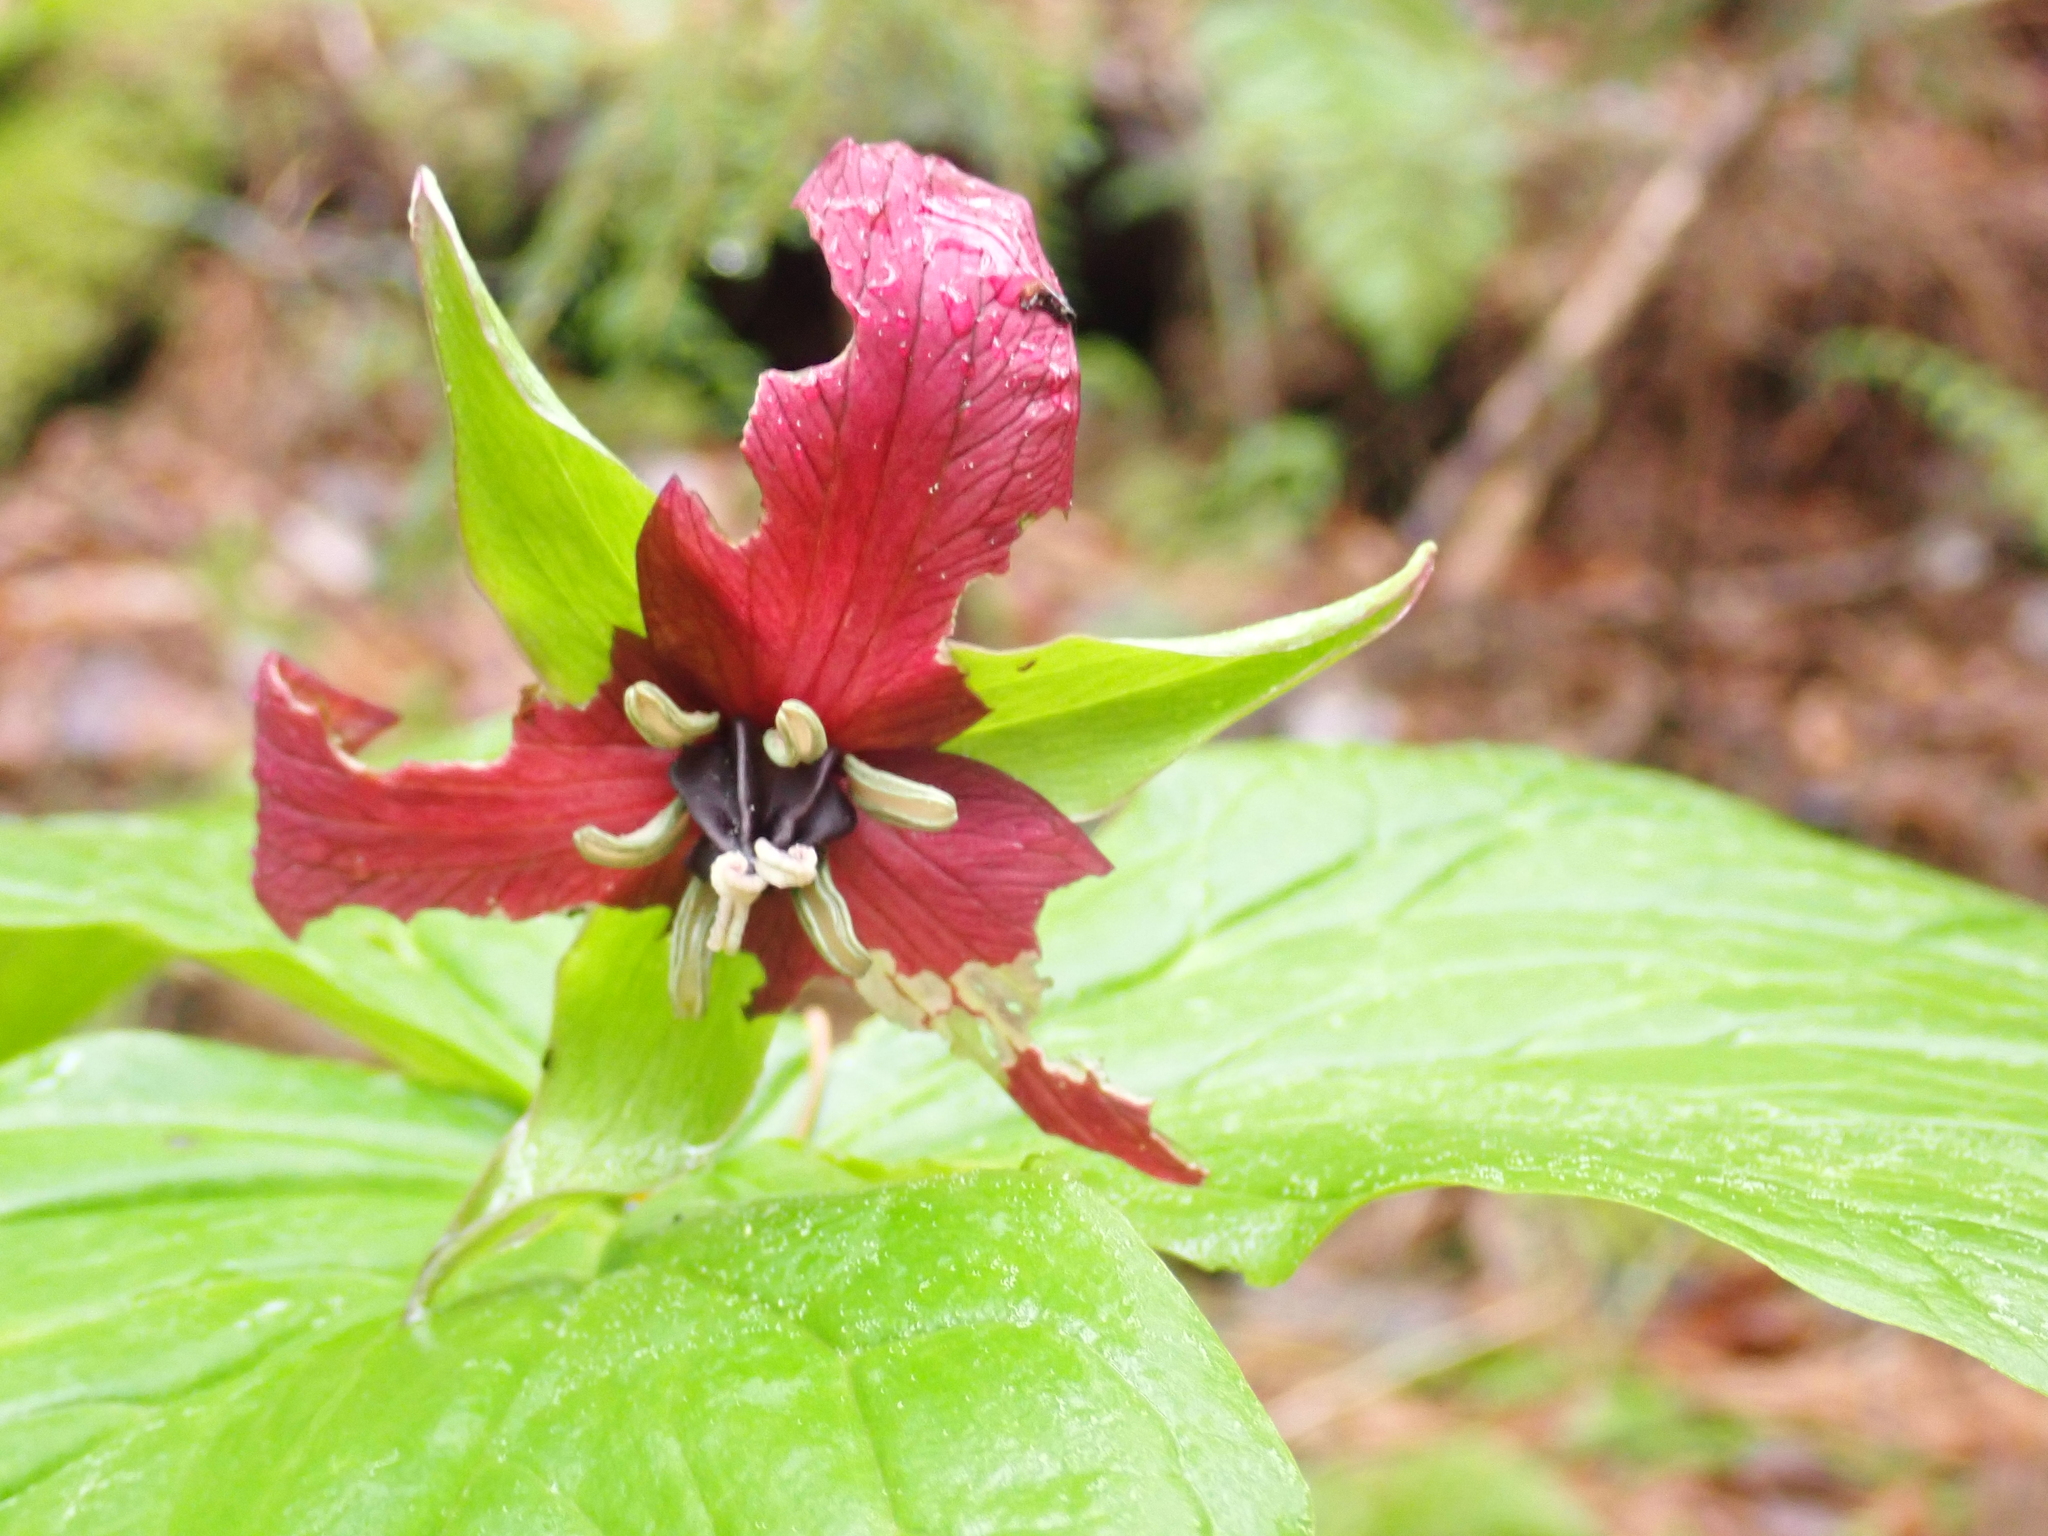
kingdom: Plantae
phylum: Tracheophyta
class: Liliopsida
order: Liliales
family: Melanthiaceae
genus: Trillium
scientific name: Trillium erectum
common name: Purple trillium
